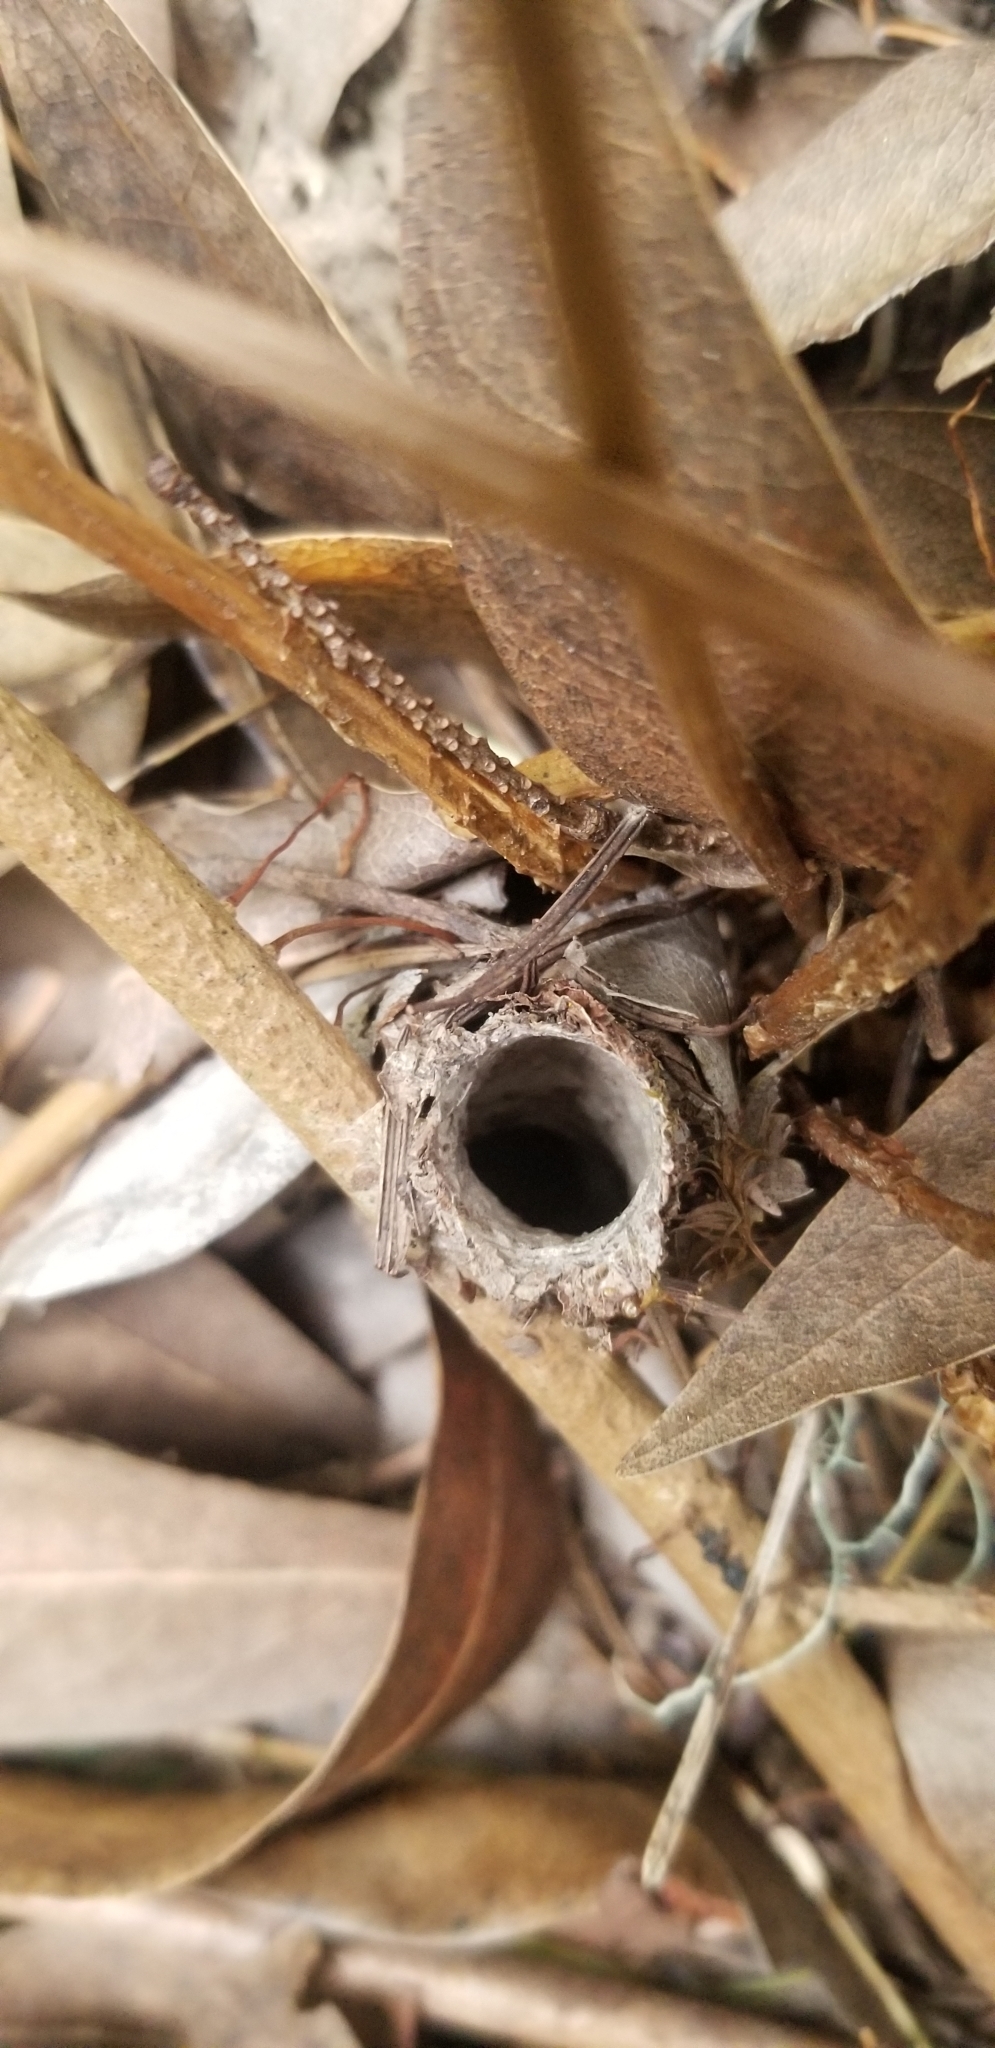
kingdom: Animalia
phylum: Arthropoda
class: Arachnida
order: Araneae
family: Antrodiaetidae
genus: Atypoides
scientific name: Atypoides riversi
